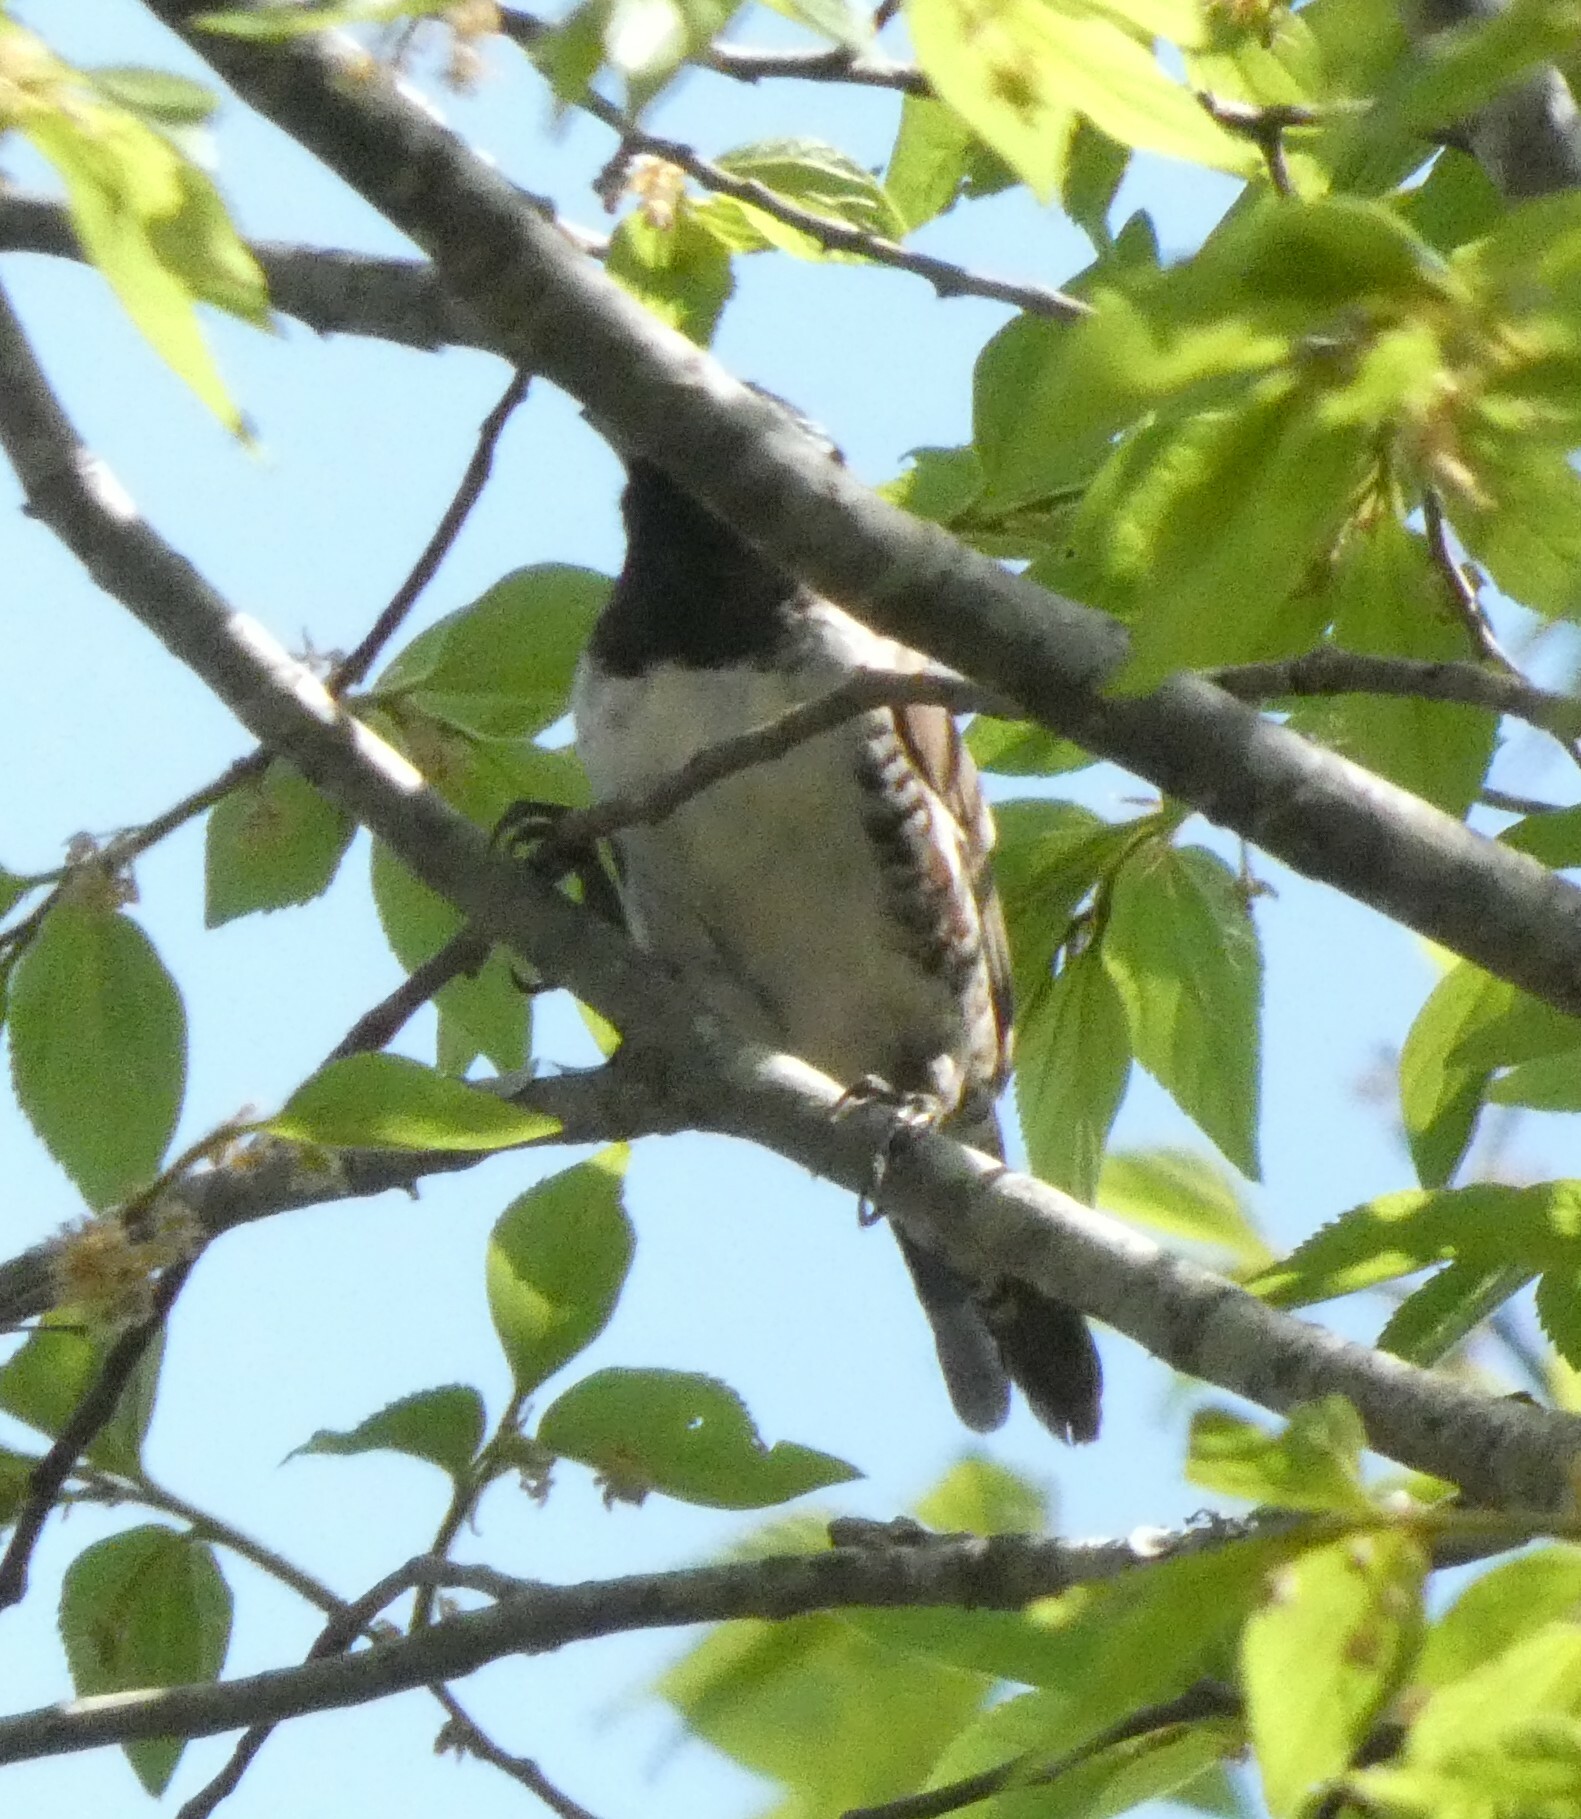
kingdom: Animalia
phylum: Chordata
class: Aves
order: Passeriformes
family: Estrildidae
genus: Lonchura
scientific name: Lonchura cucullata
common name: Bronze mannikin
